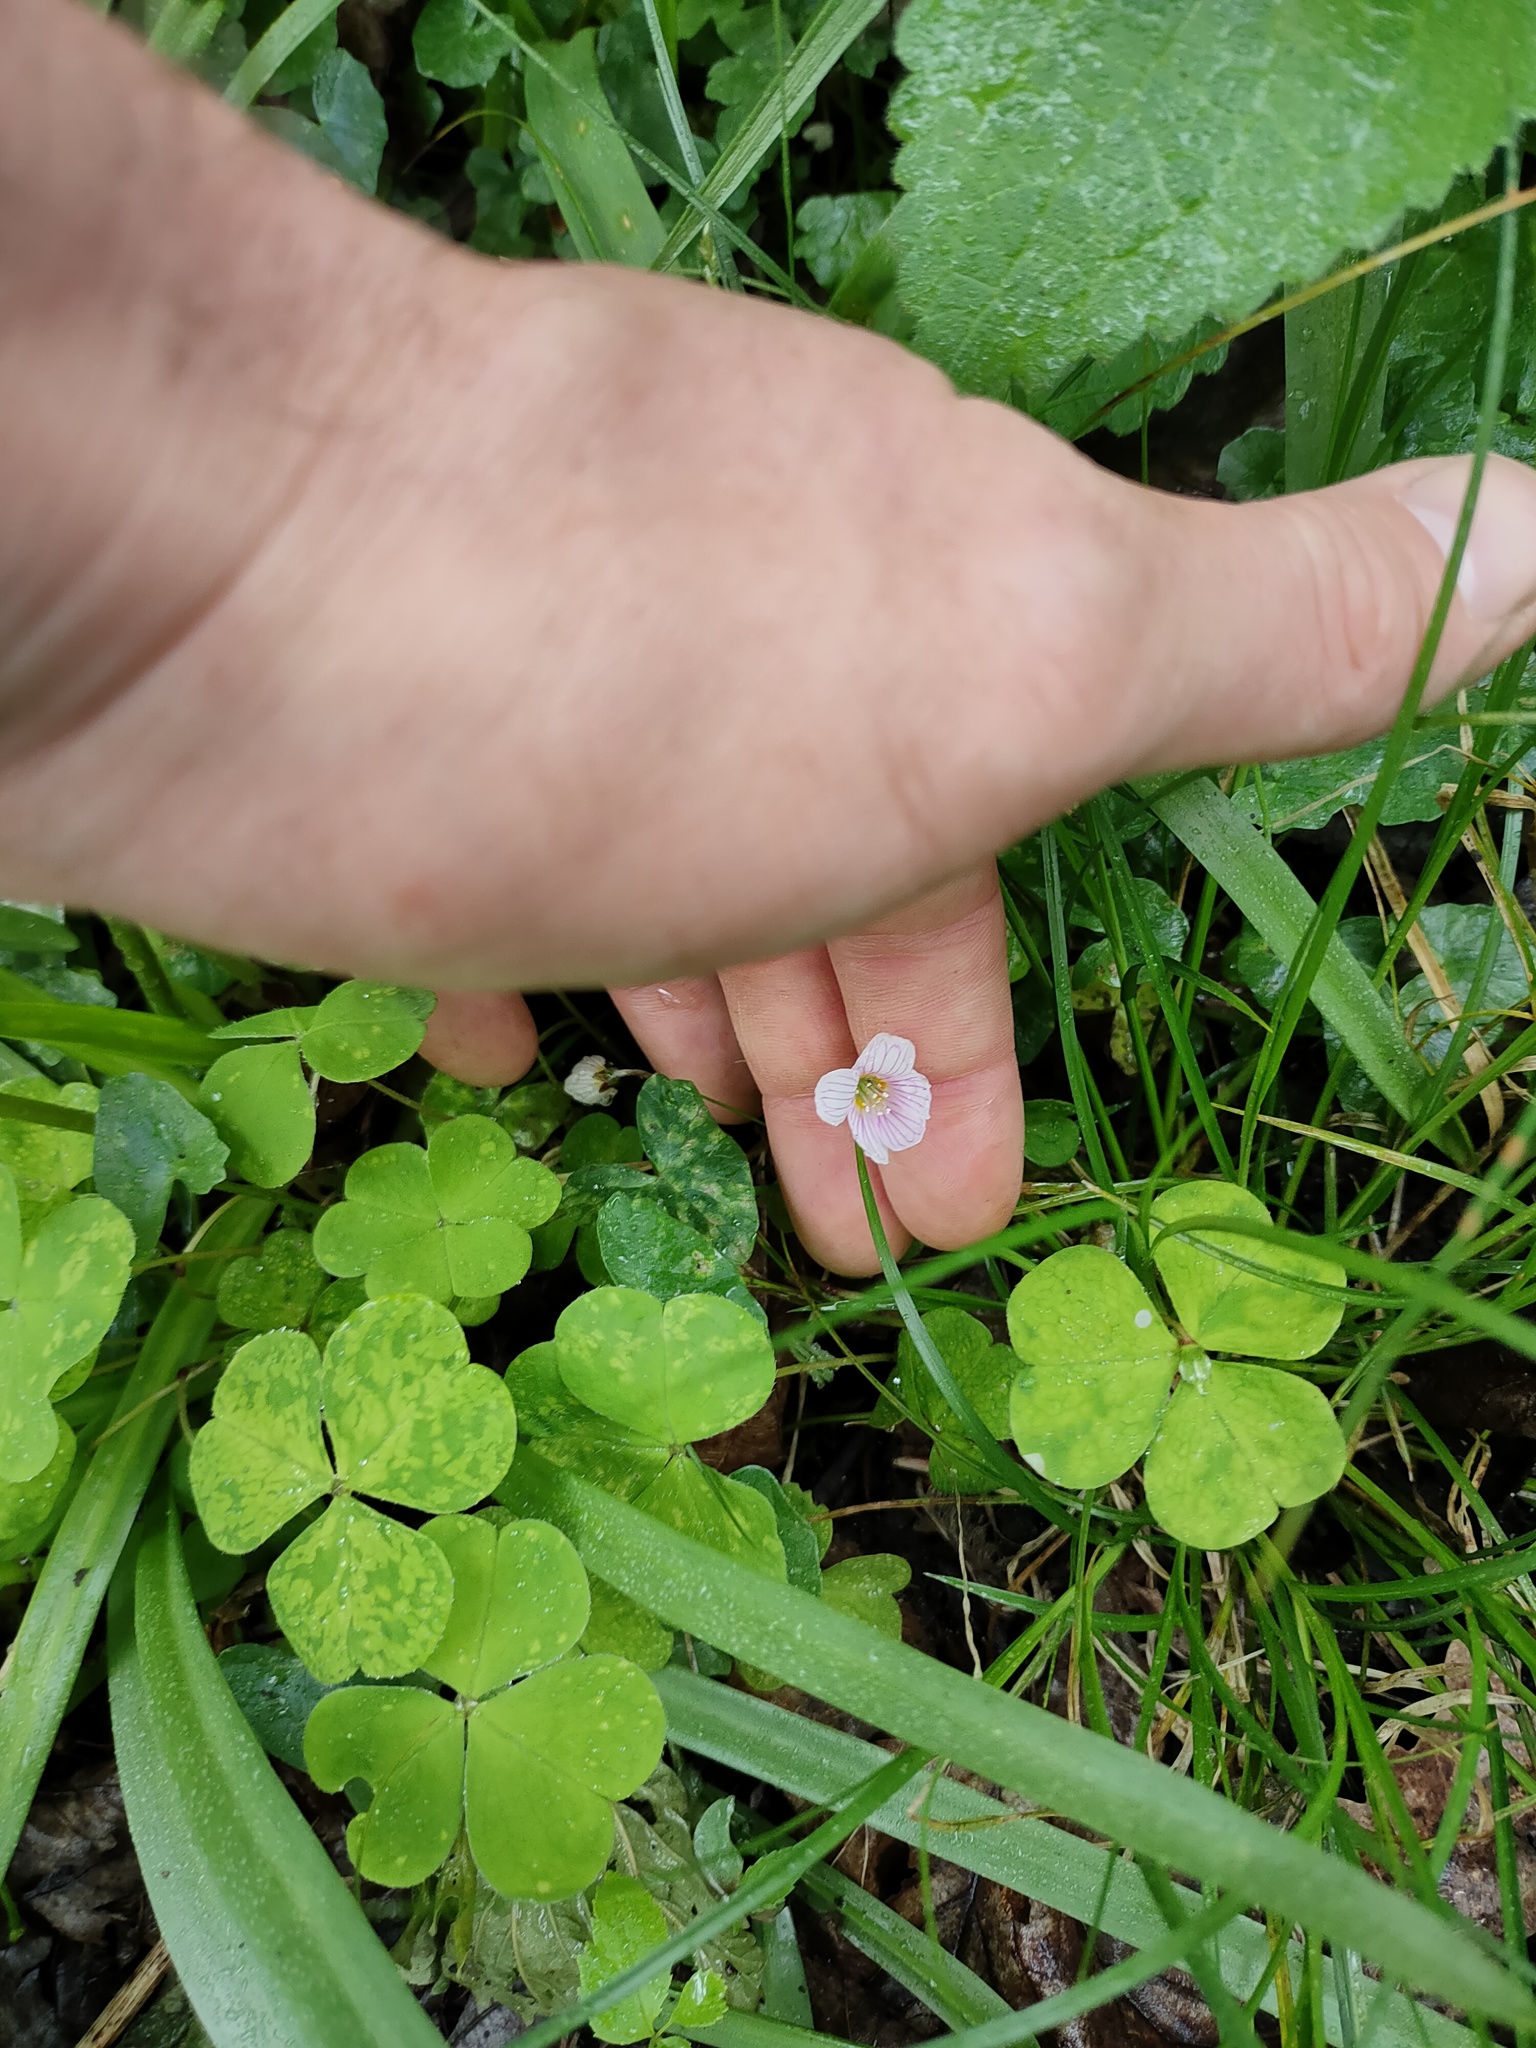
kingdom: Plantae
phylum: Tracheophyta
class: Magnoliopsida
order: Oxalidales
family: Oxalidaceae
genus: Oxalis
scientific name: Oxalis acetosella
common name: Wood-sorrel
